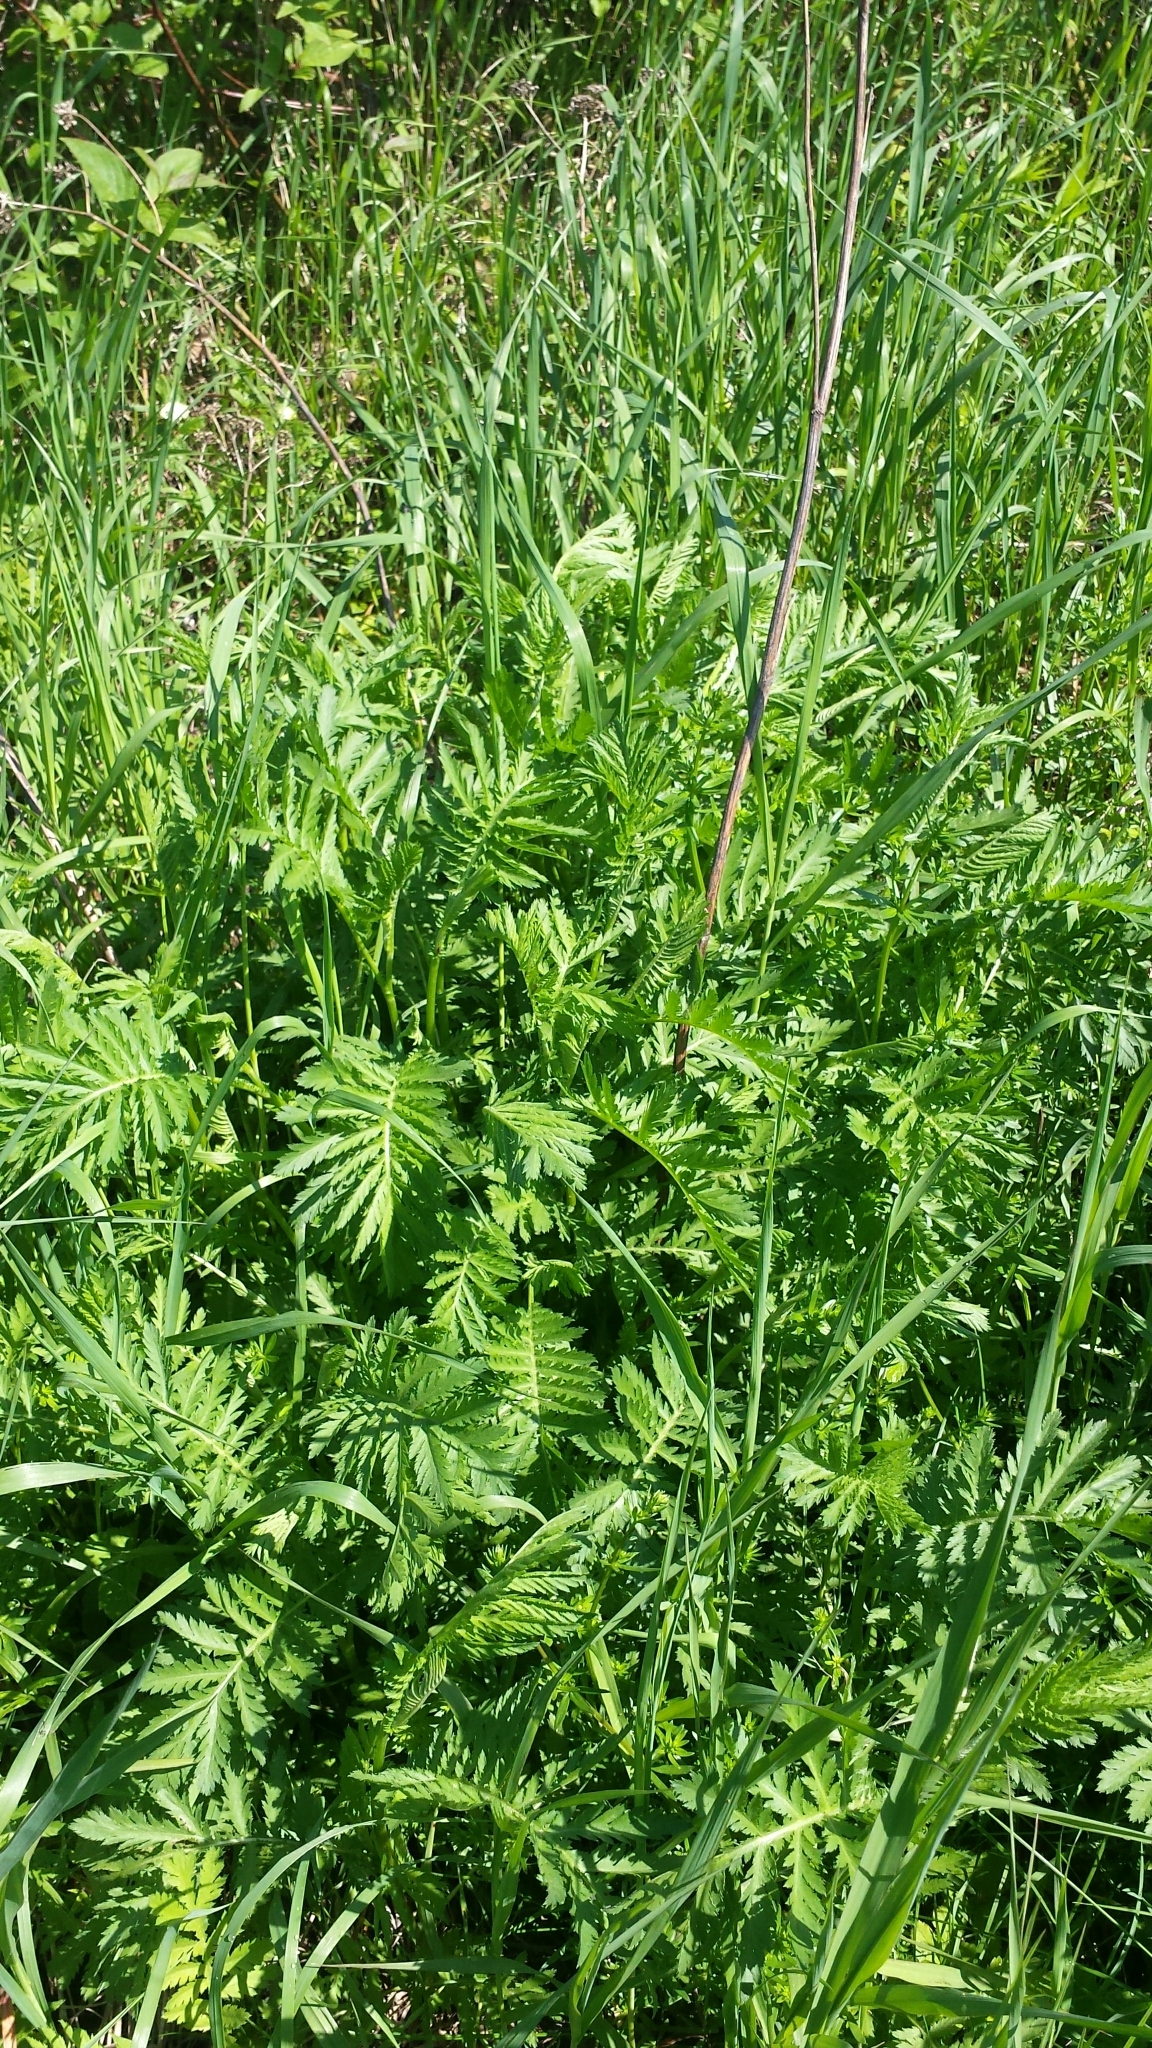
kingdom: Plantae
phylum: Tracheophyta
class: Magnoliopsida
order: Asterales
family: Asteraceae
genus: Tanacetum
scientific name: Tanacetum vulgare
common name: Common tansy
